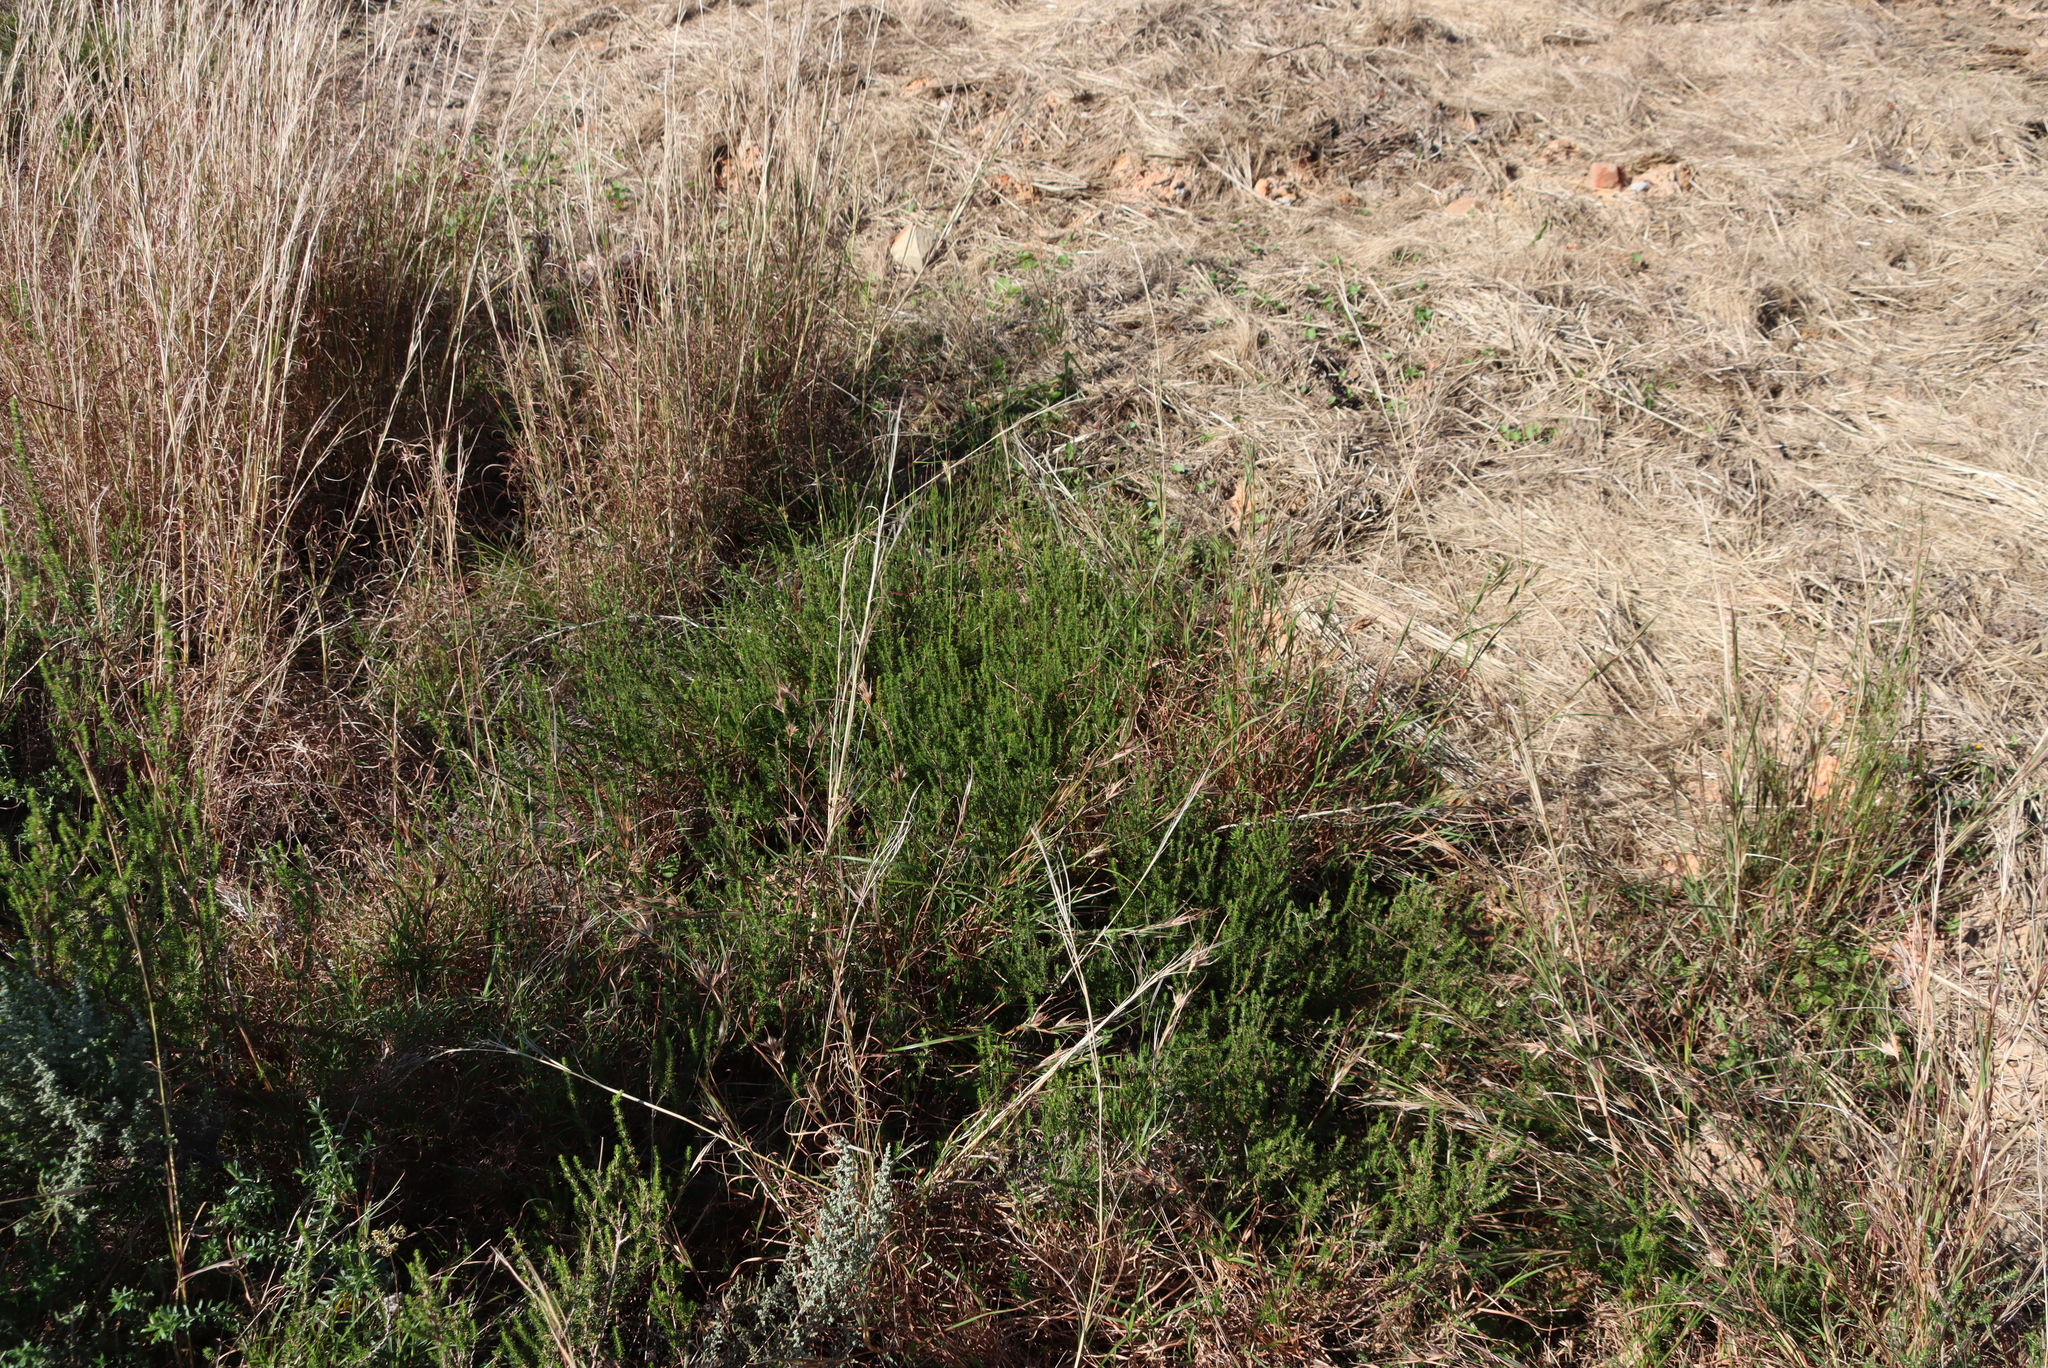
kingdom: Plantae
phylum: Tracheophyta
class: Magnoliopsida
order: Rosales
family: Rosaceae
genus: Cliffortia
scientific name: Cliffortia linearifolia
